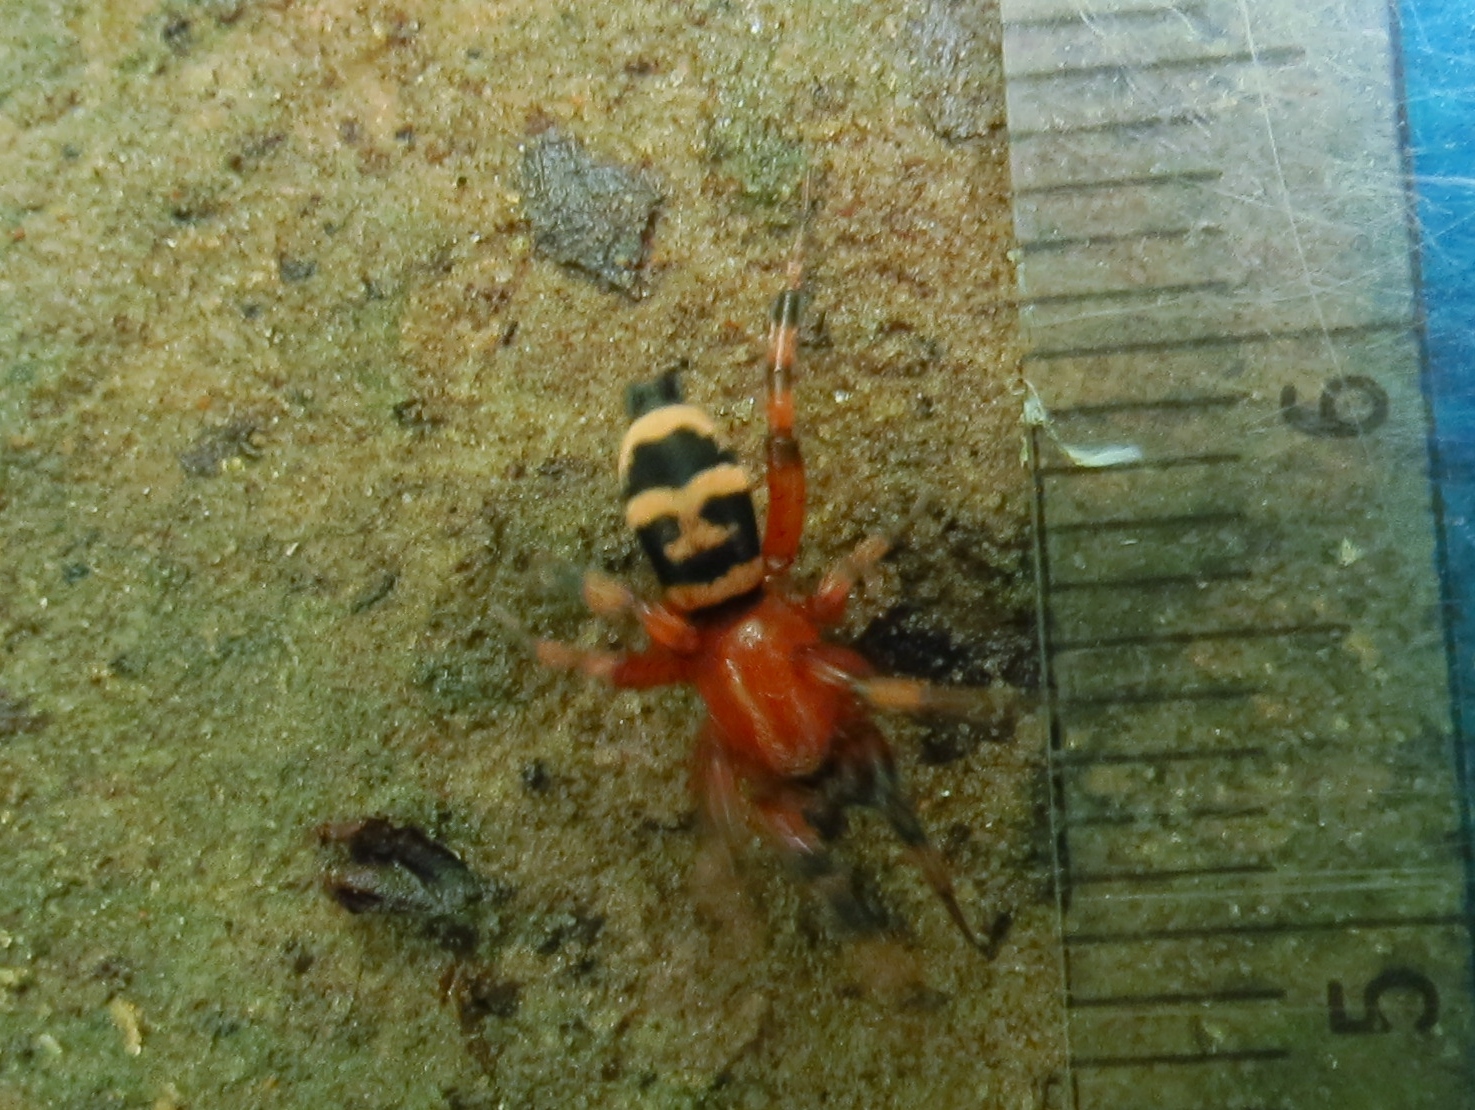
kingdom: Animalia
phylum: Arthropoda
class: Arachnida
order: Araneae
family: Gnaphosidae
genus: Sergiolus
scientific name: Sergiolus capulatus
